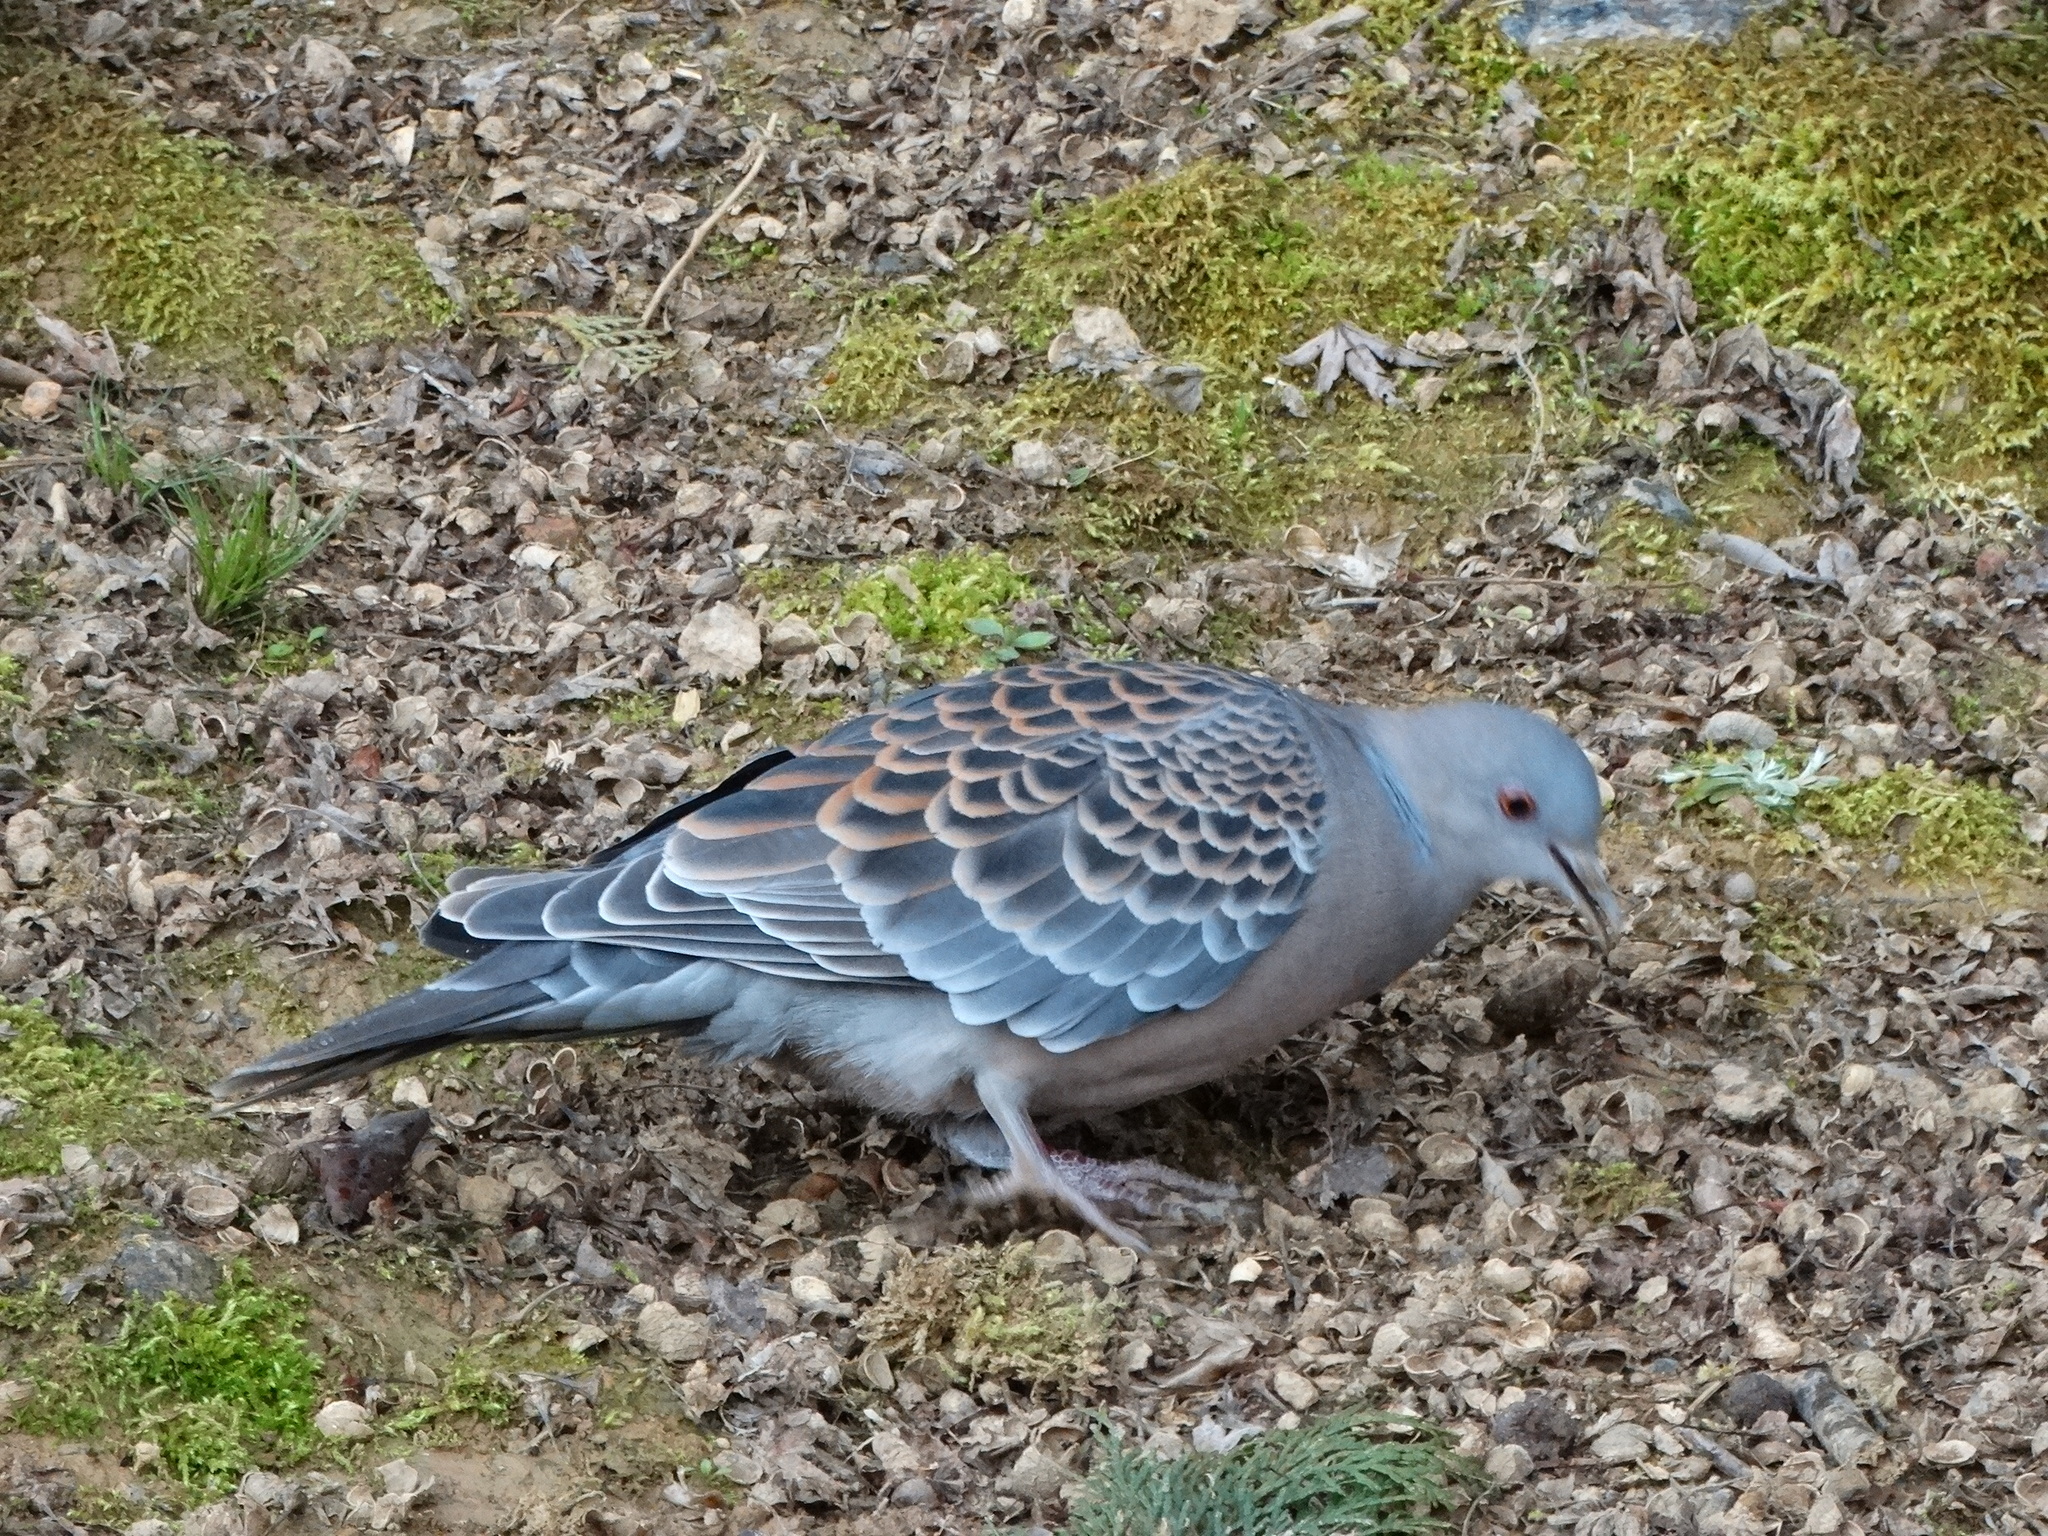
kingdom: Animalia
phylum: Chordata
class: Aves
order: Columbiformes
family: Columbidae
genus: Streptopelia
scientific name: Streptopelia orientalis
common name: Oriental turtle dove
